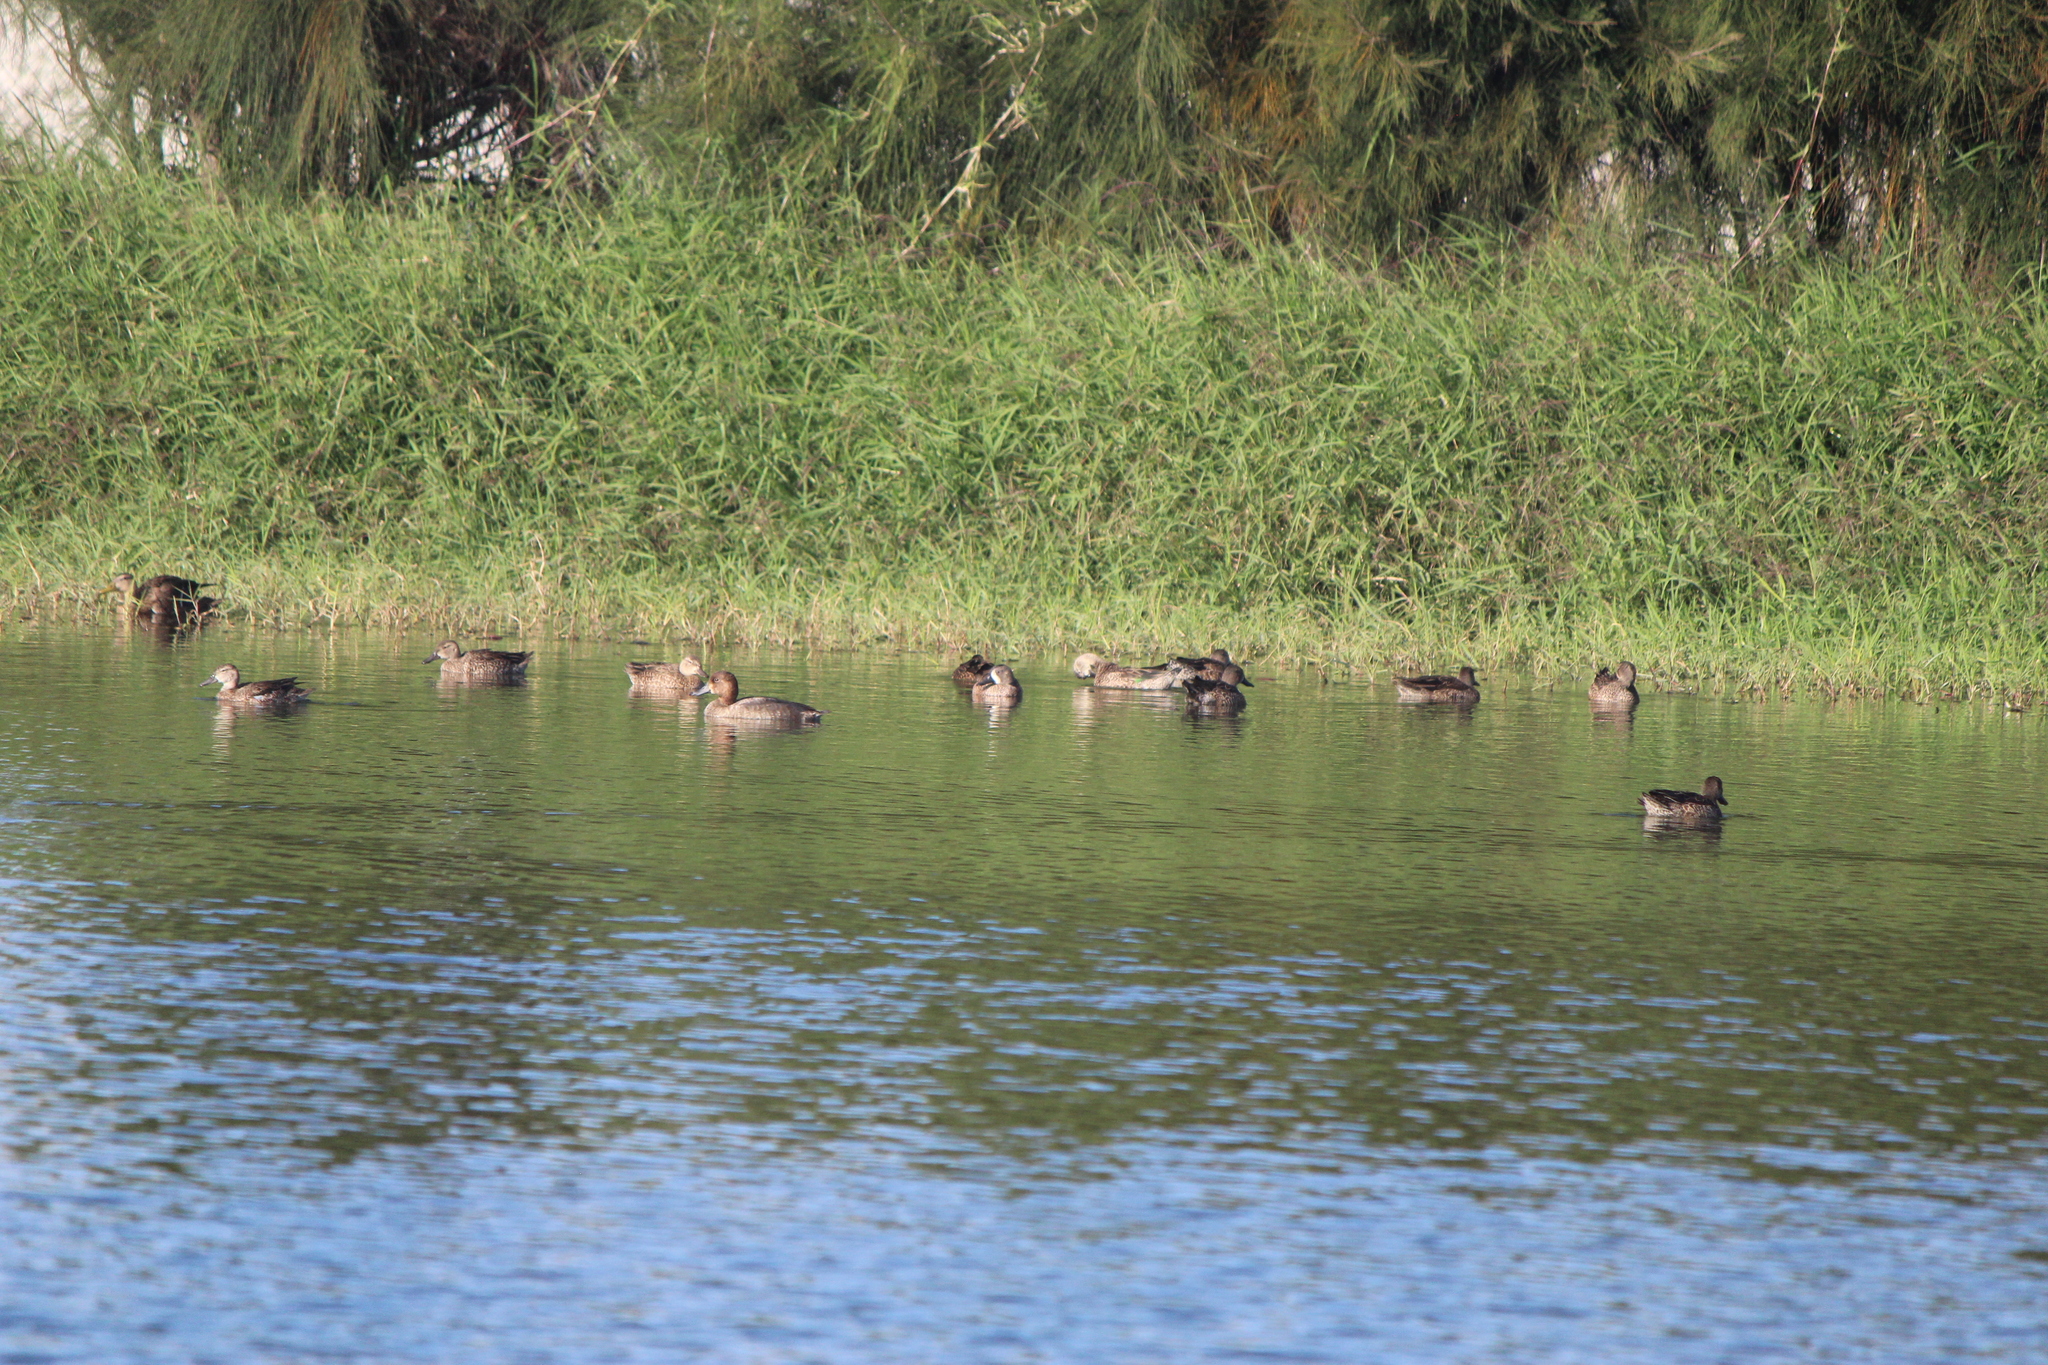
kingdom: Animalia
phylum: Chordata
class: Aves
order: Anseriformes
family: Anatidae
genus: Spatula
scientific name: Spatula discors
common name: Blue-winged teal
